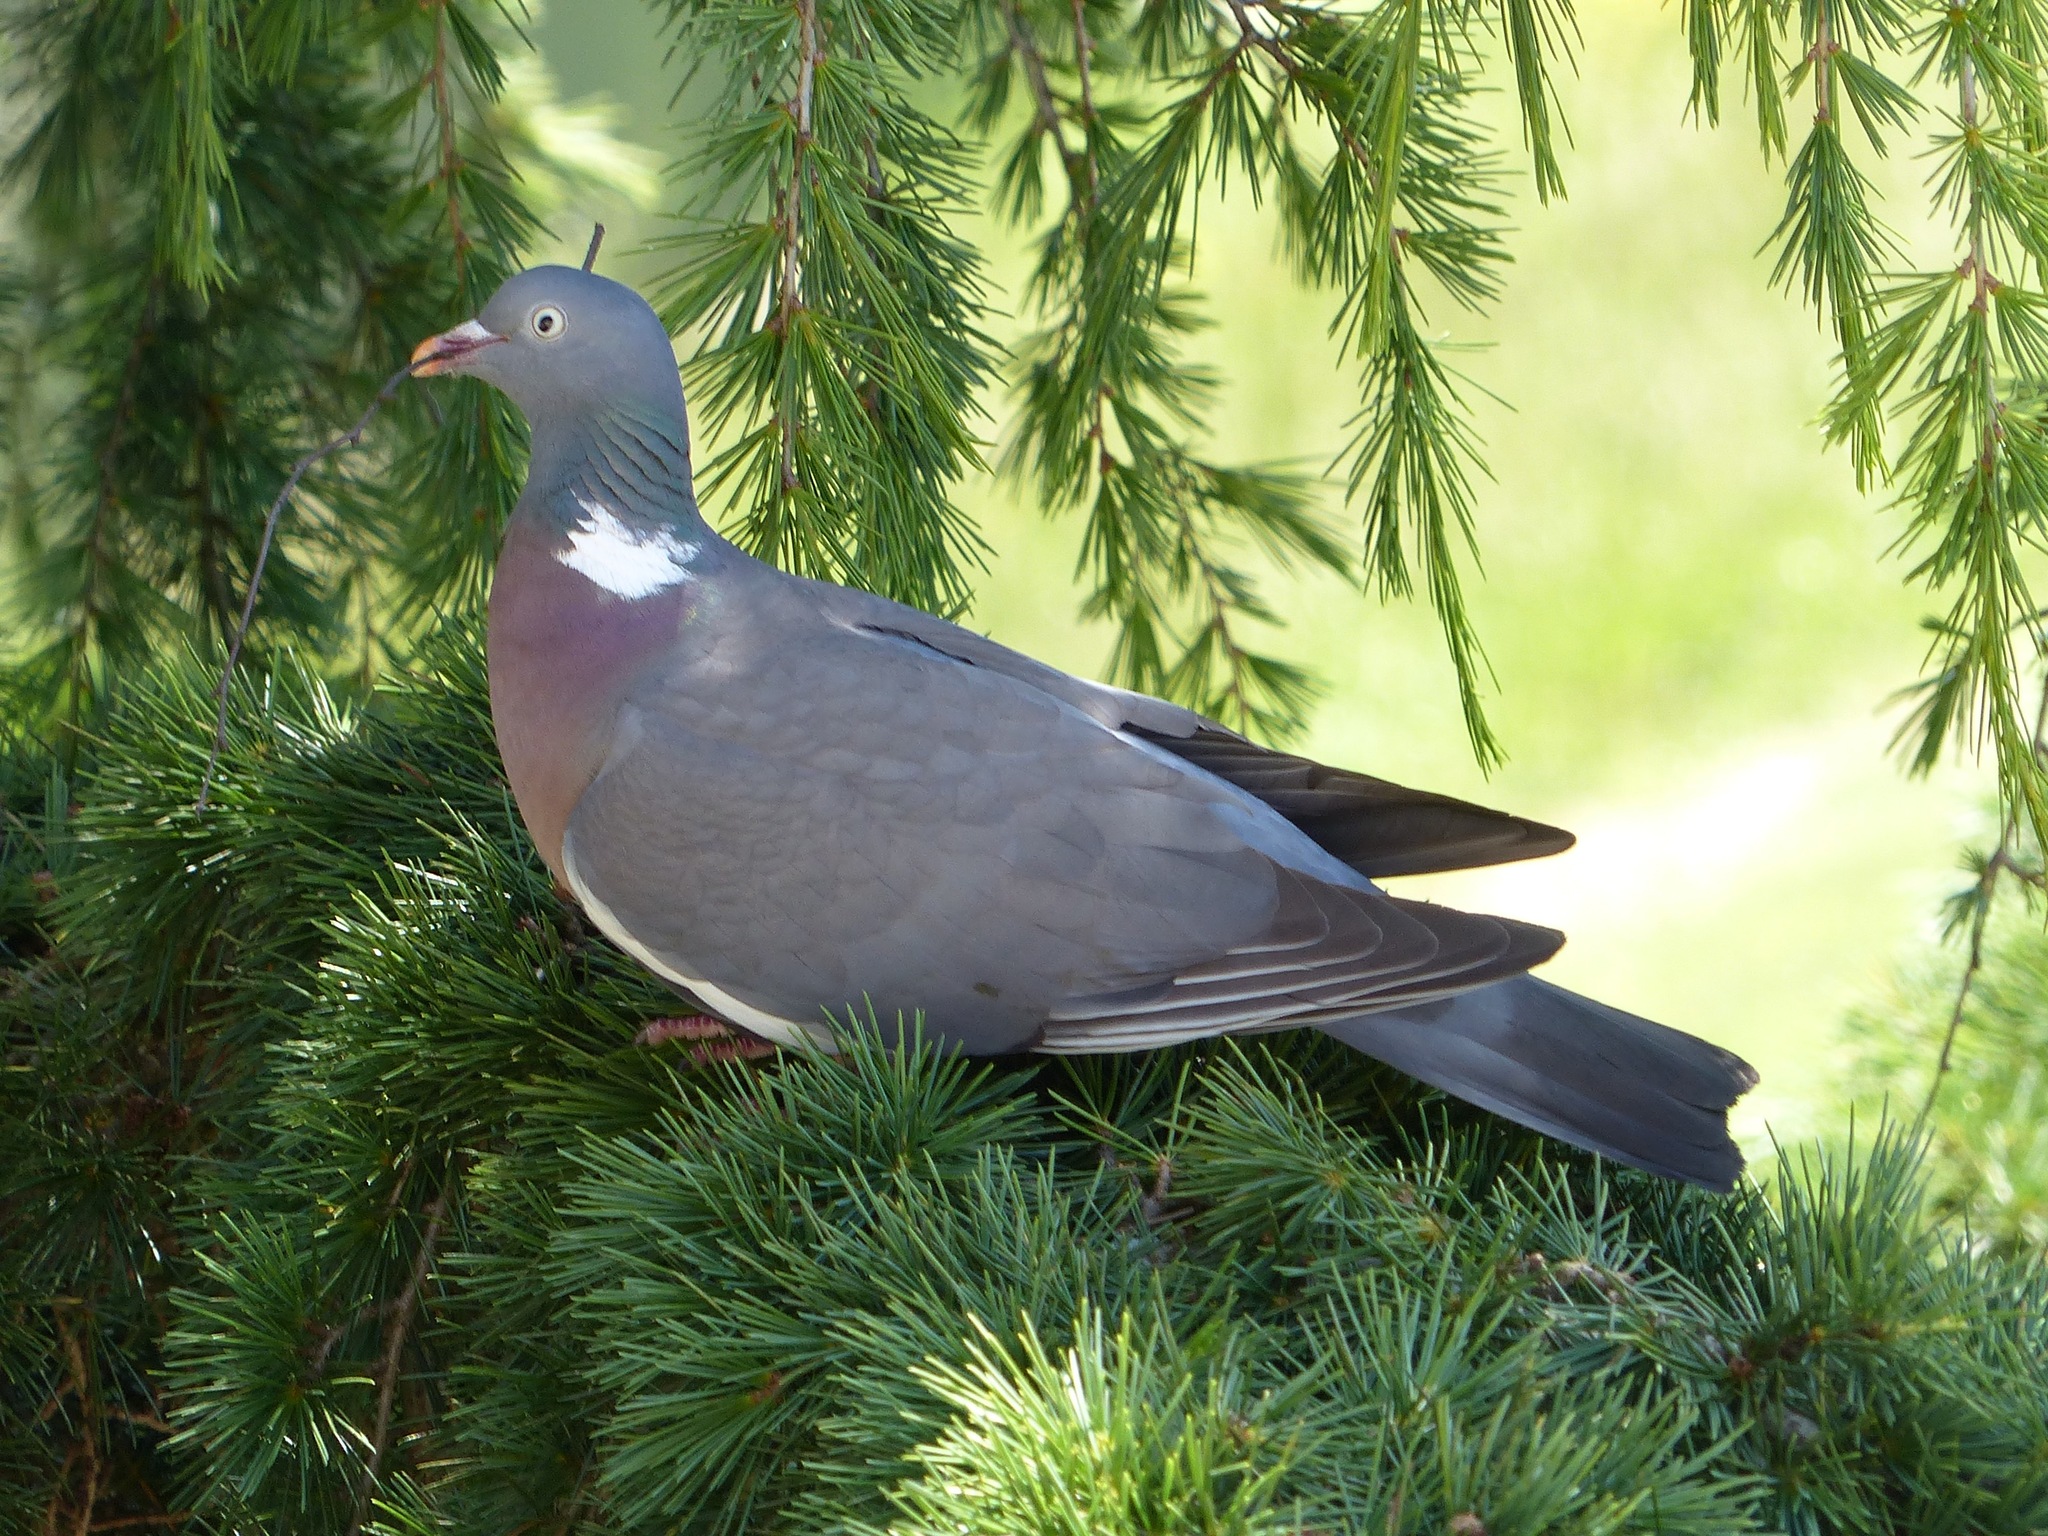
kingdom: Animalia
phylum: Chordata
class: Aves
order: Columbiformes
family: Columbidae
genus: Columba
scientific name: Columba palumbus
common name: Common wood pigeon
